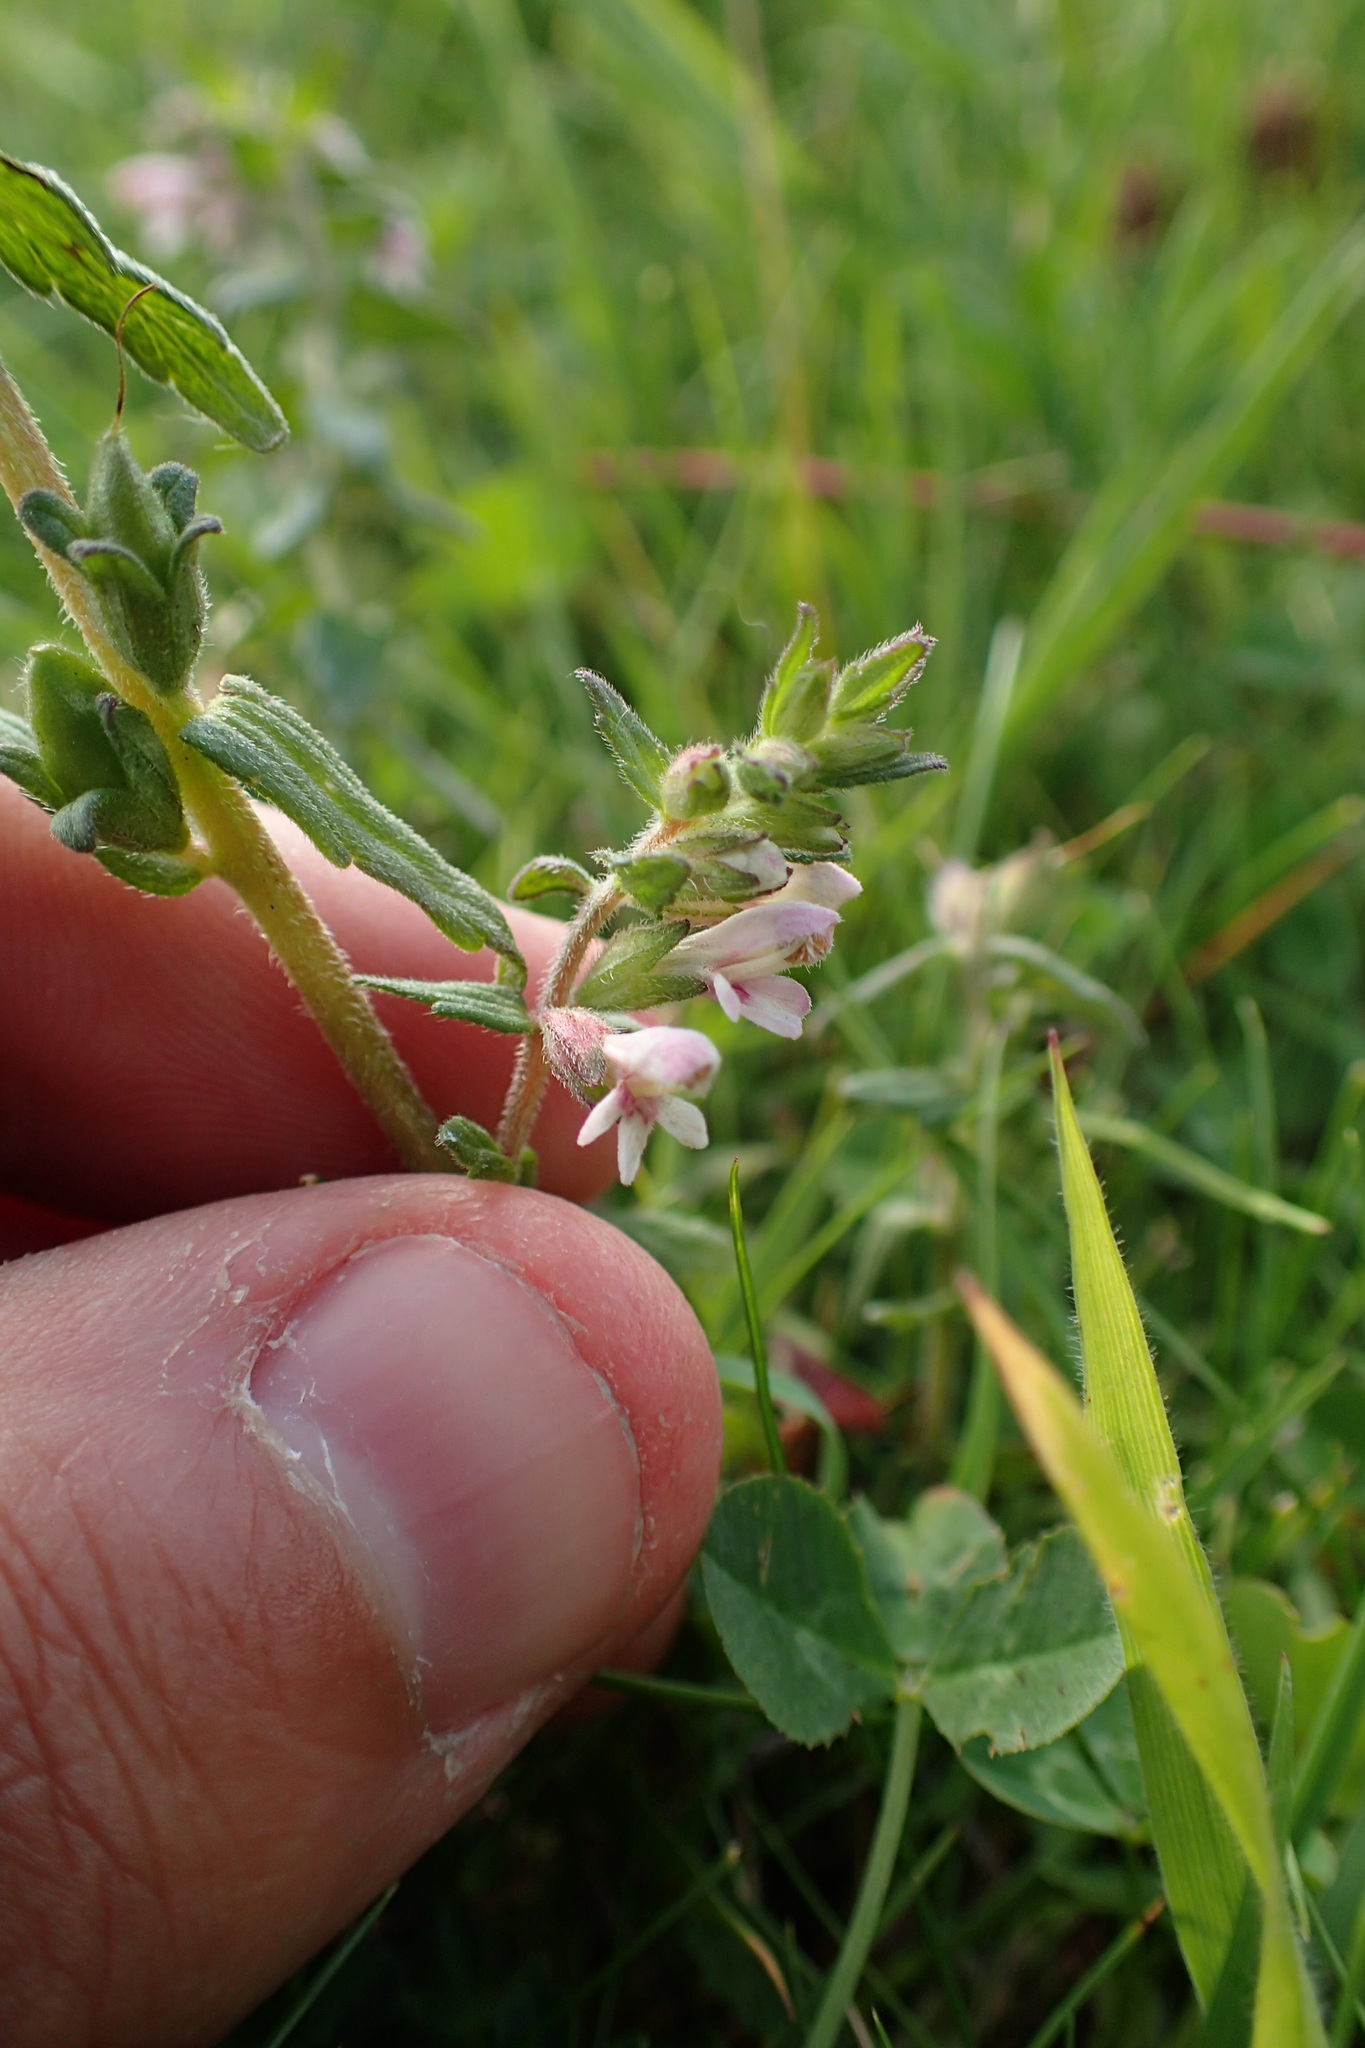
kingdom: Plantae
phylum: Tracheophyta
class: Magnoliopsida
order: Lamiales
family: Orobanchaceae
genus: Odontites
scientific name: Odontites vernus
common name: Red bartsia
